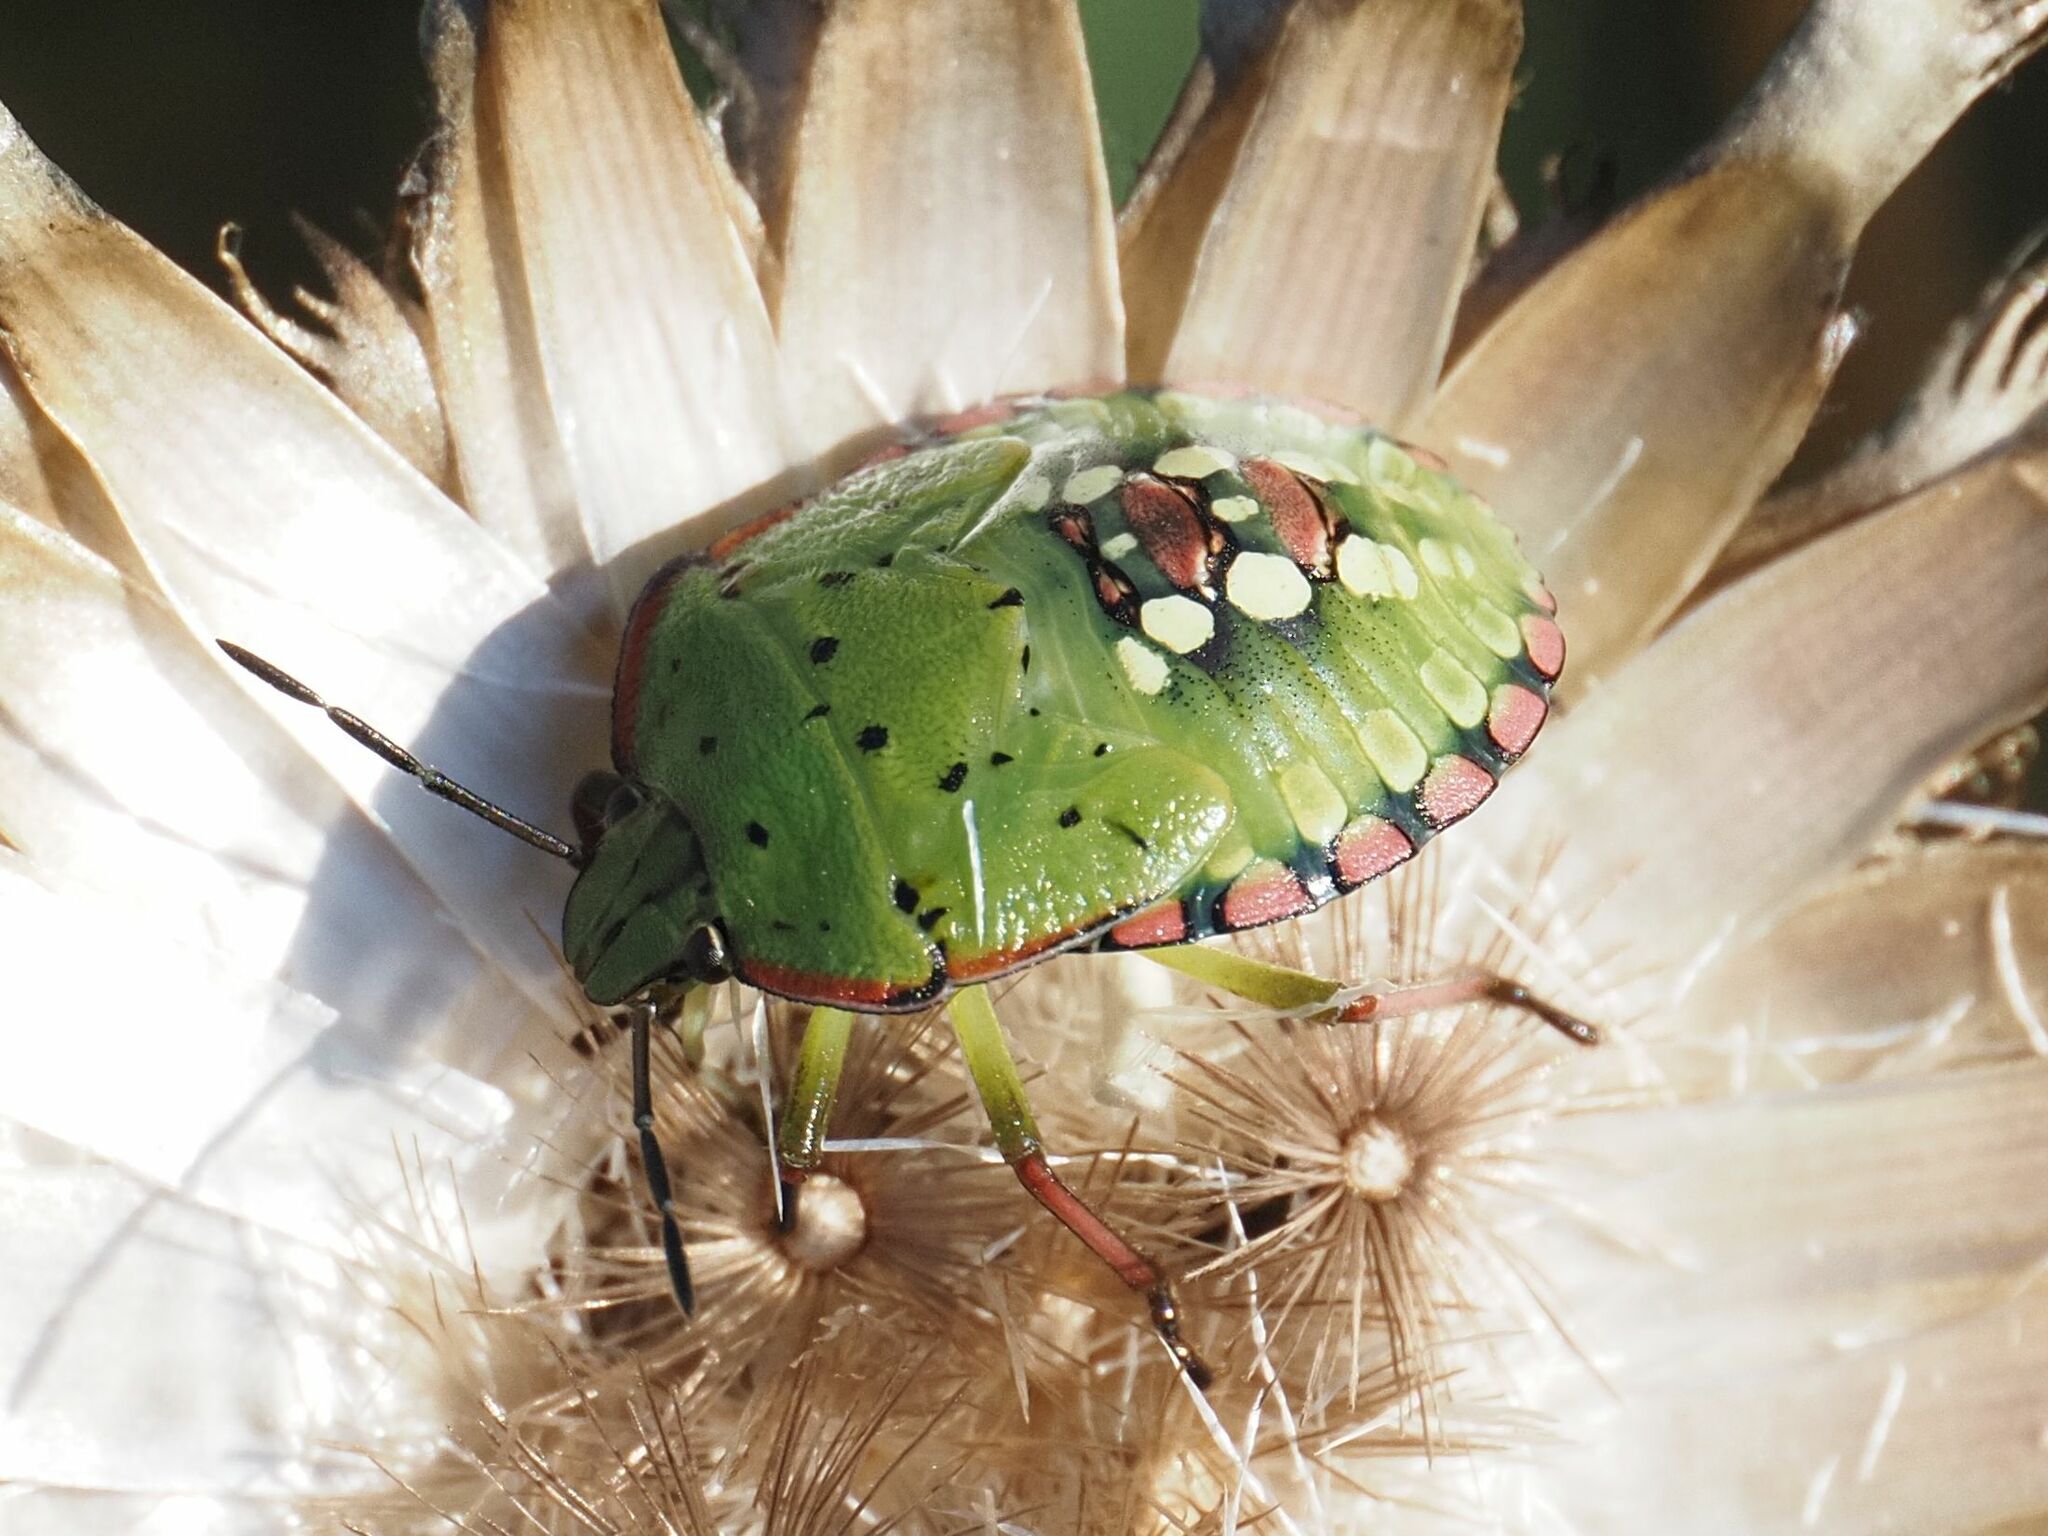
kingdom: Animalia
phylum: Arthropoda
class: Insecta
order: Hemiptera
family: Pentatomidae
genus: Nezara
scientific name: Nezara viridula
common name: Southern green stink bug
